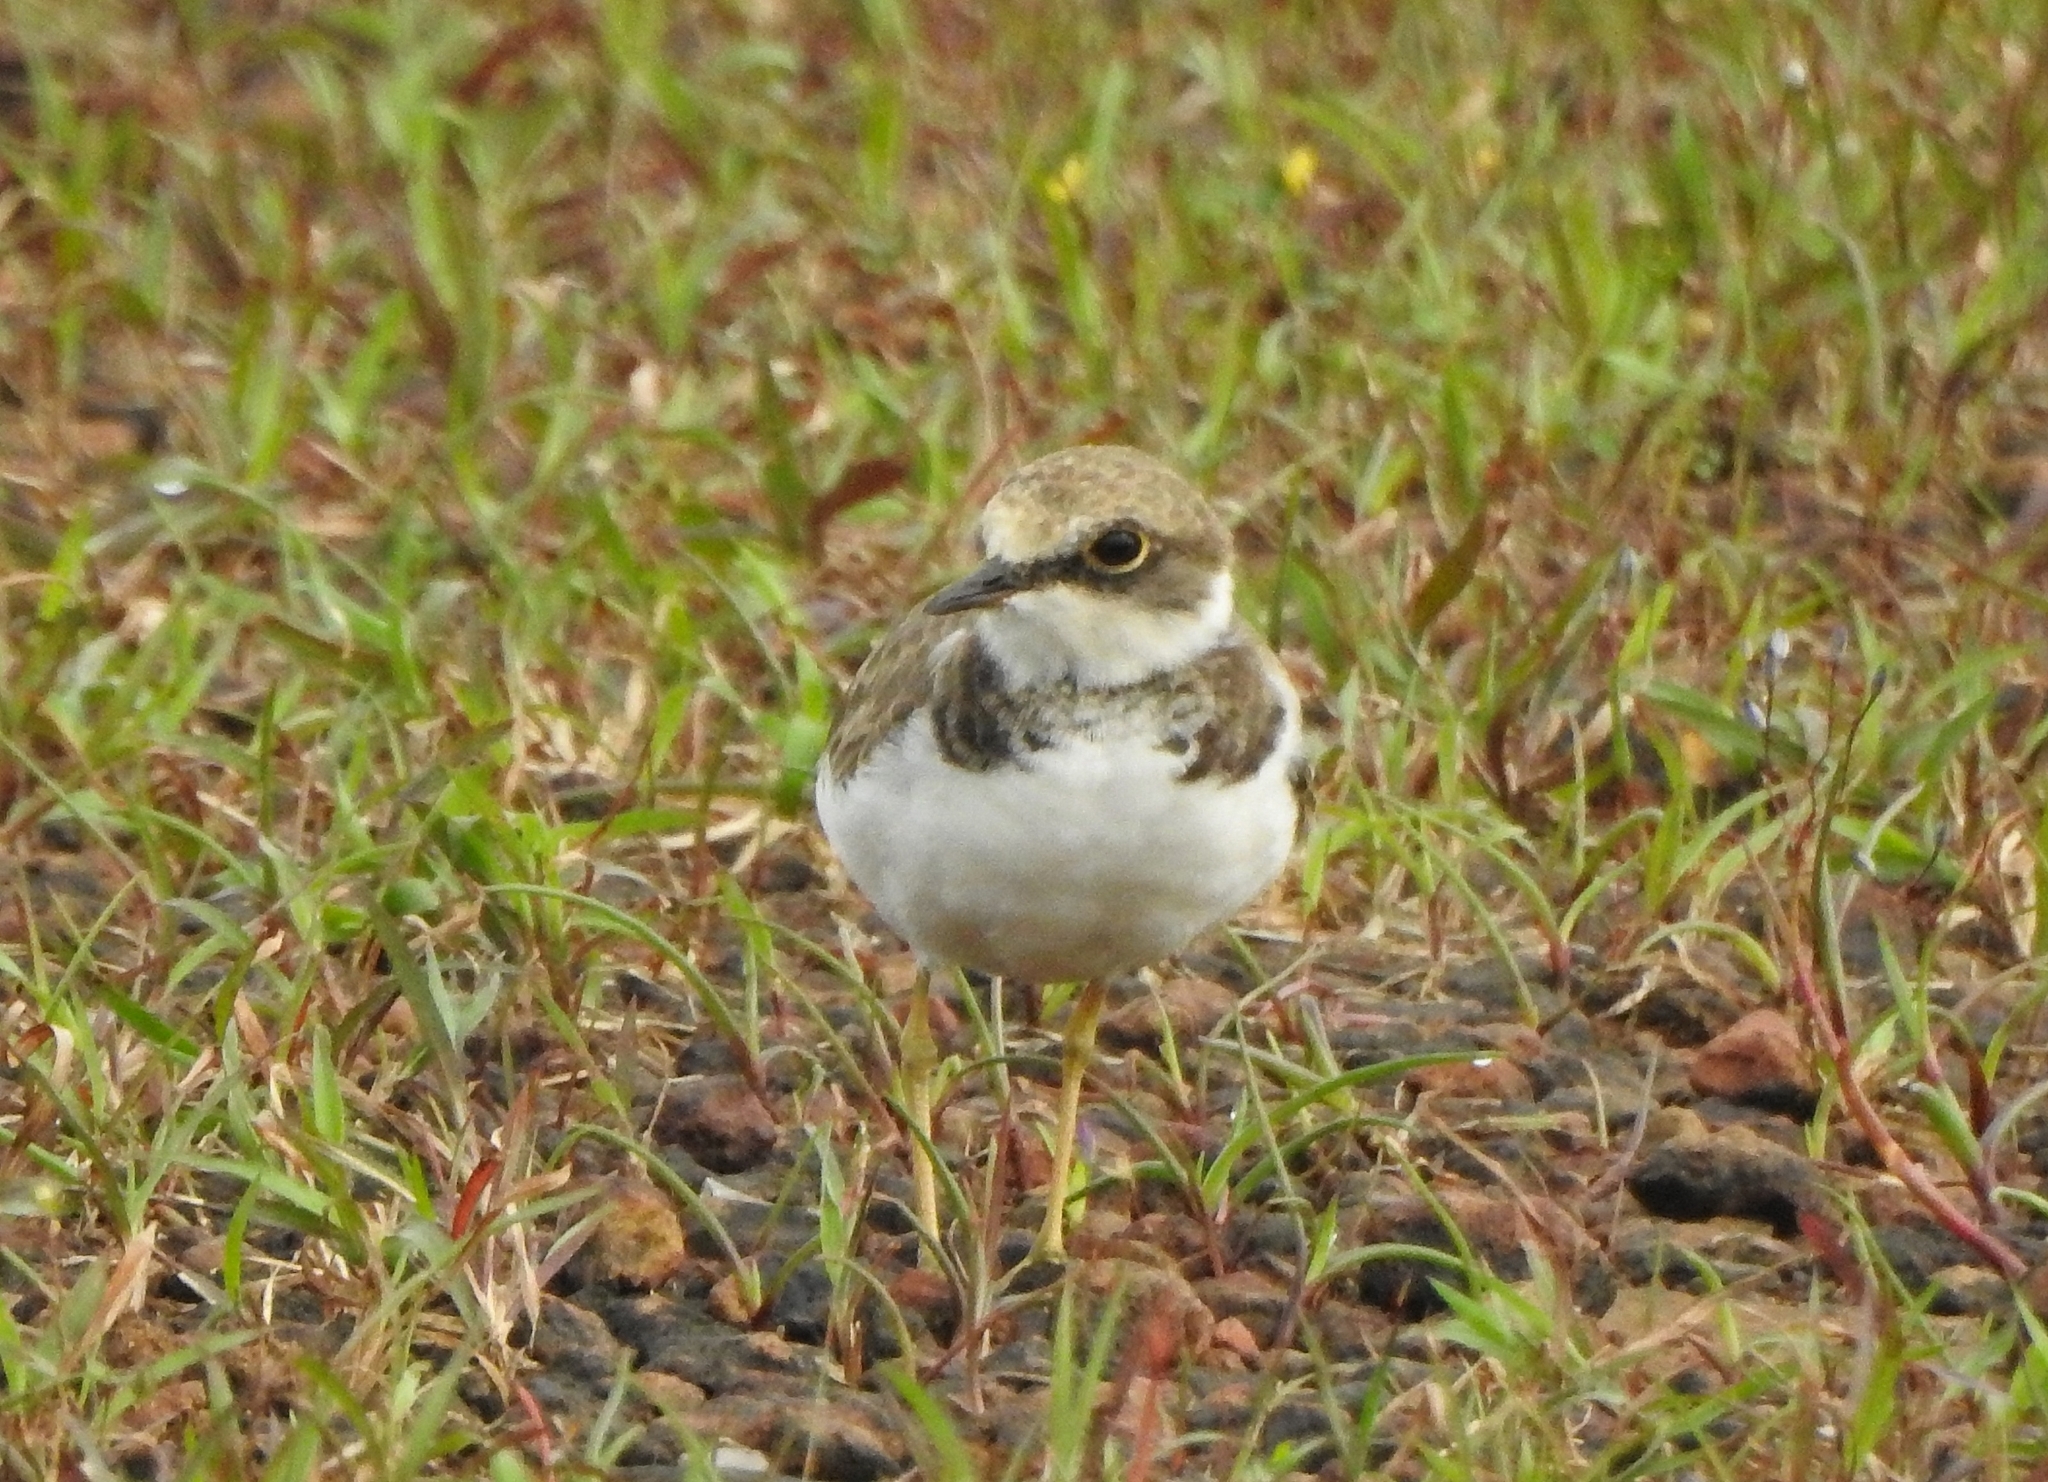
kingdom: Animalia
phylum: Chordata
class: Aves
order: Charadriiformes
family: Charadriidae
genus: Charadrius
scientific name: Charadrius dubius
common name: Little ringed plover
